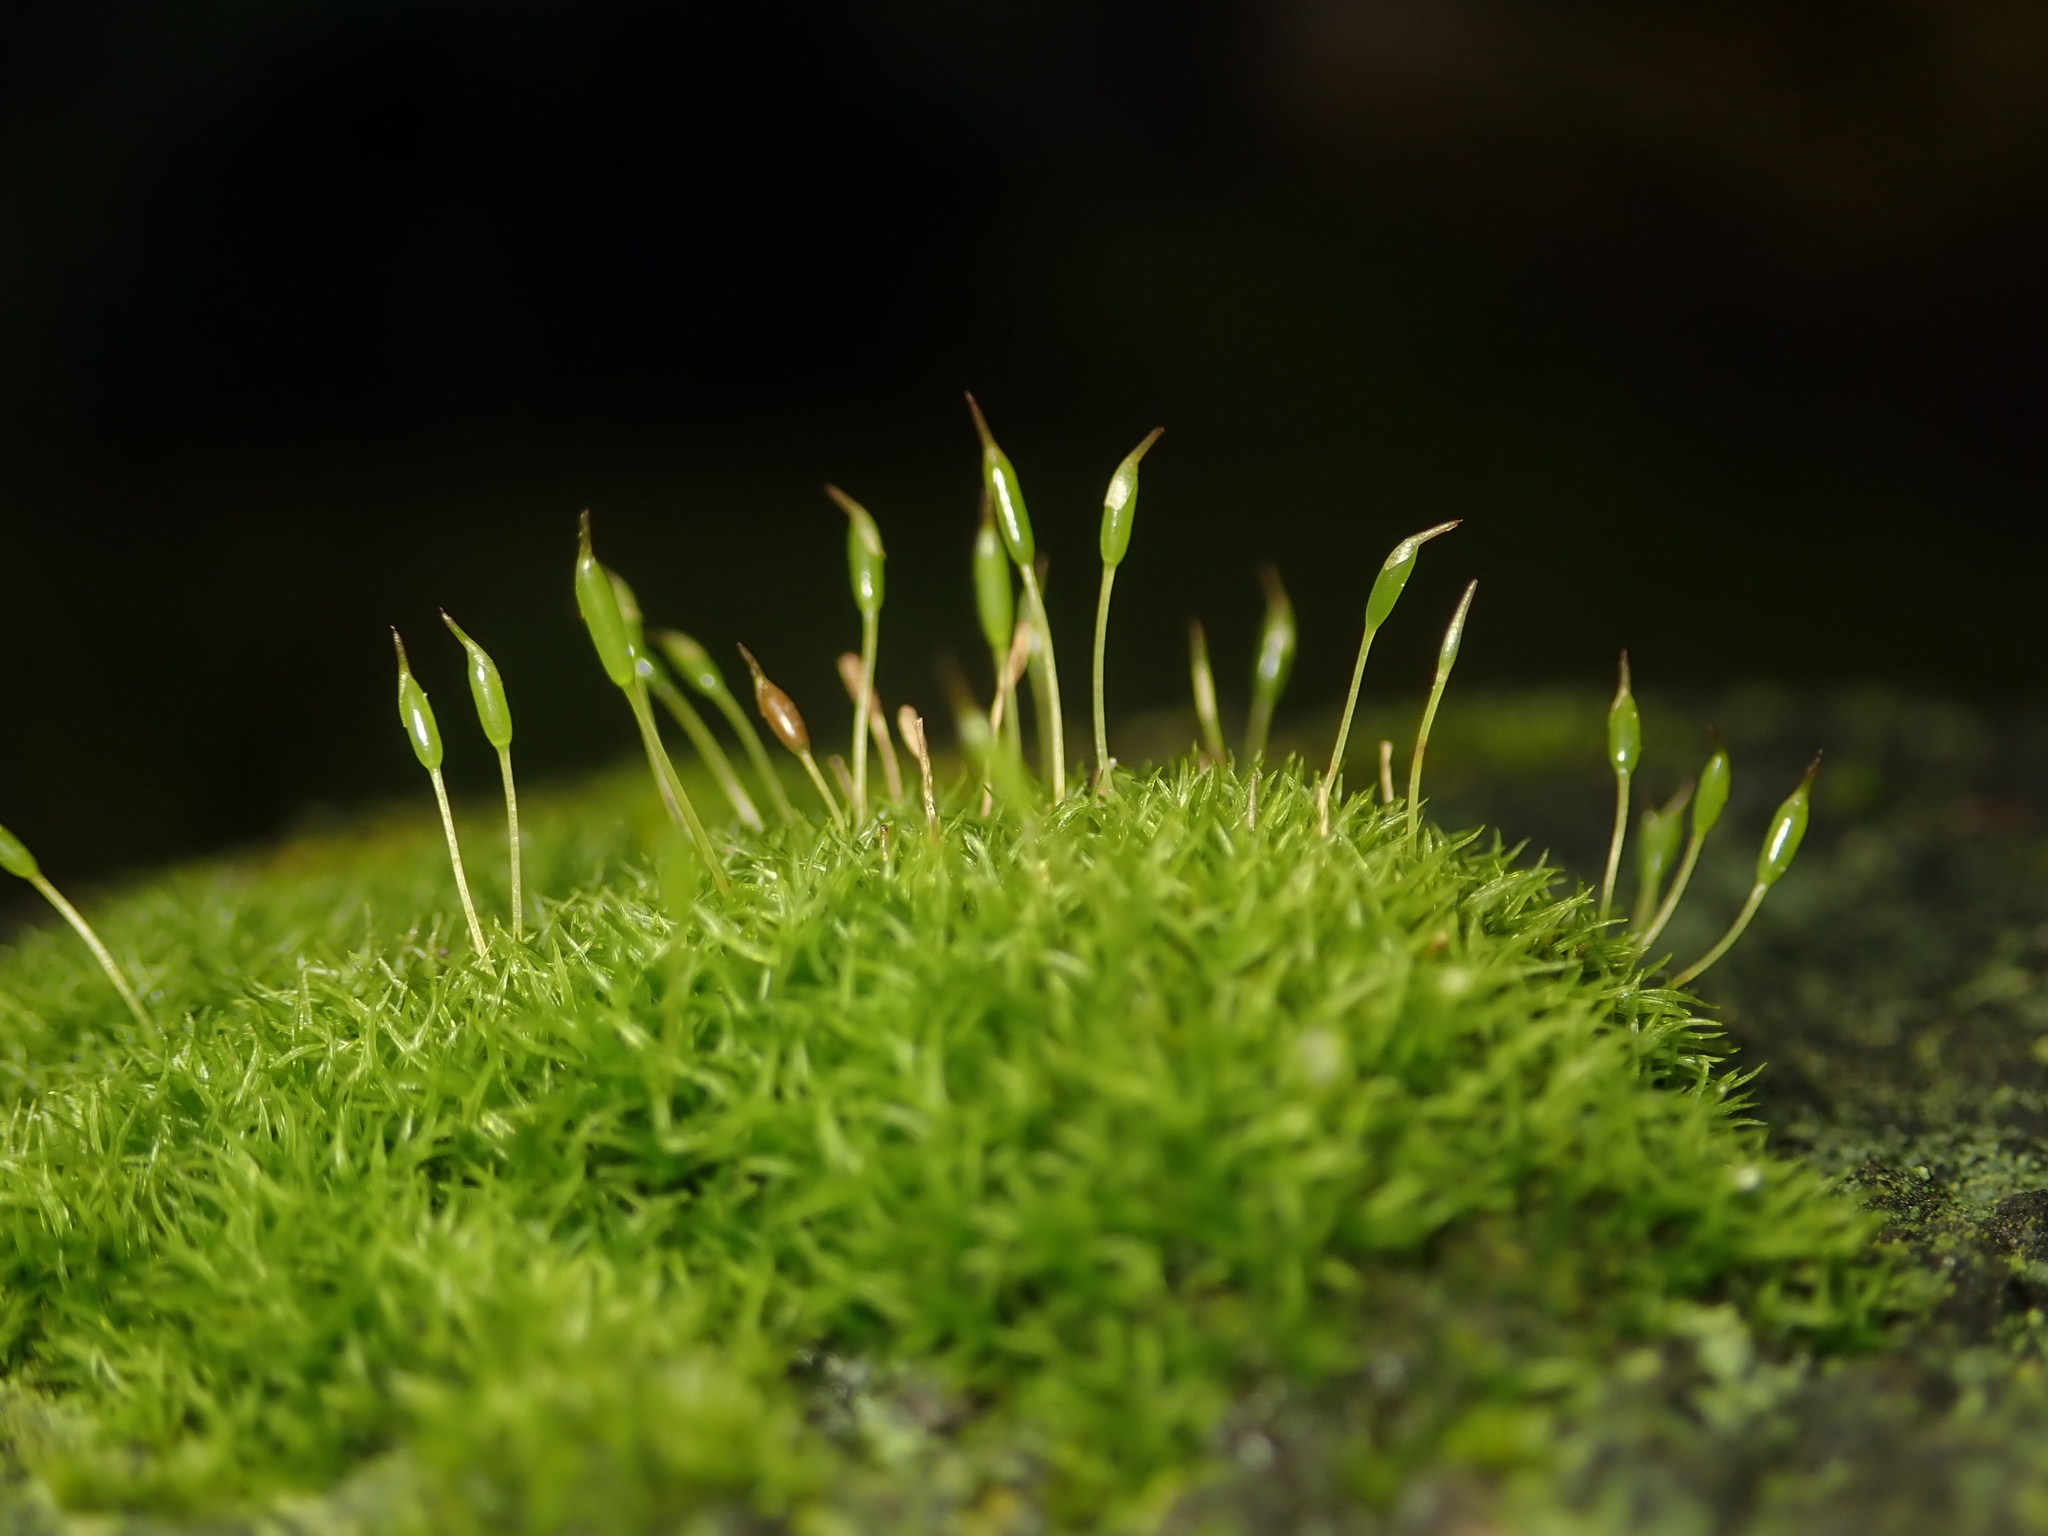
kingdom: Plantae
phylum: Bryophyta
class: Bryopsida
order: Dicranales
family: Rhabdoweisiaceae
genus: Dicranoweisia
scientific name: Dicranoweisia cirrata
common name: Common pincushion
